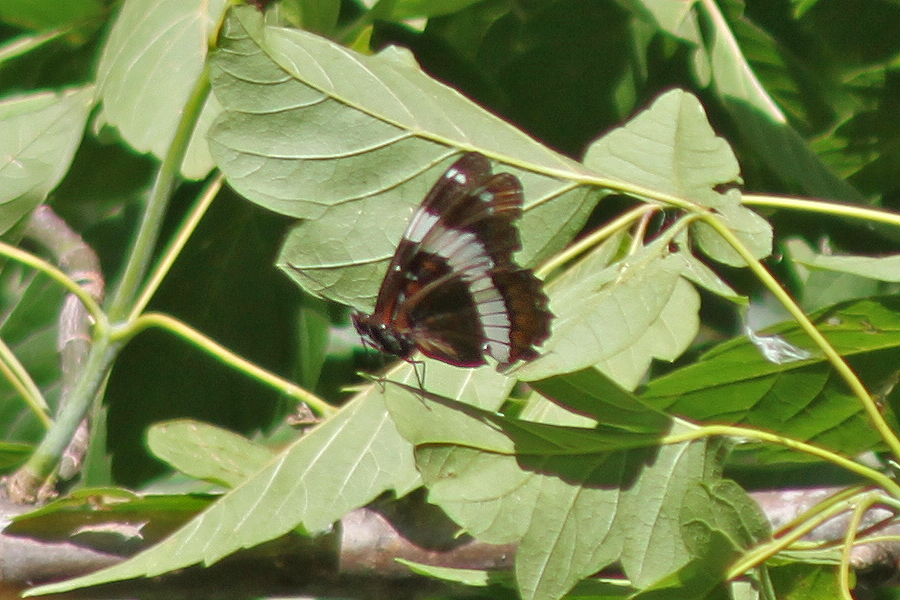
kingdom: Animalia
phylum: Arthropoda
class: Insecta
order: Lepidoptera
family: Nymphalidae
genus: Limenitis
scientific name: Limenitis arthemis
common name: Red-spotted admiral
